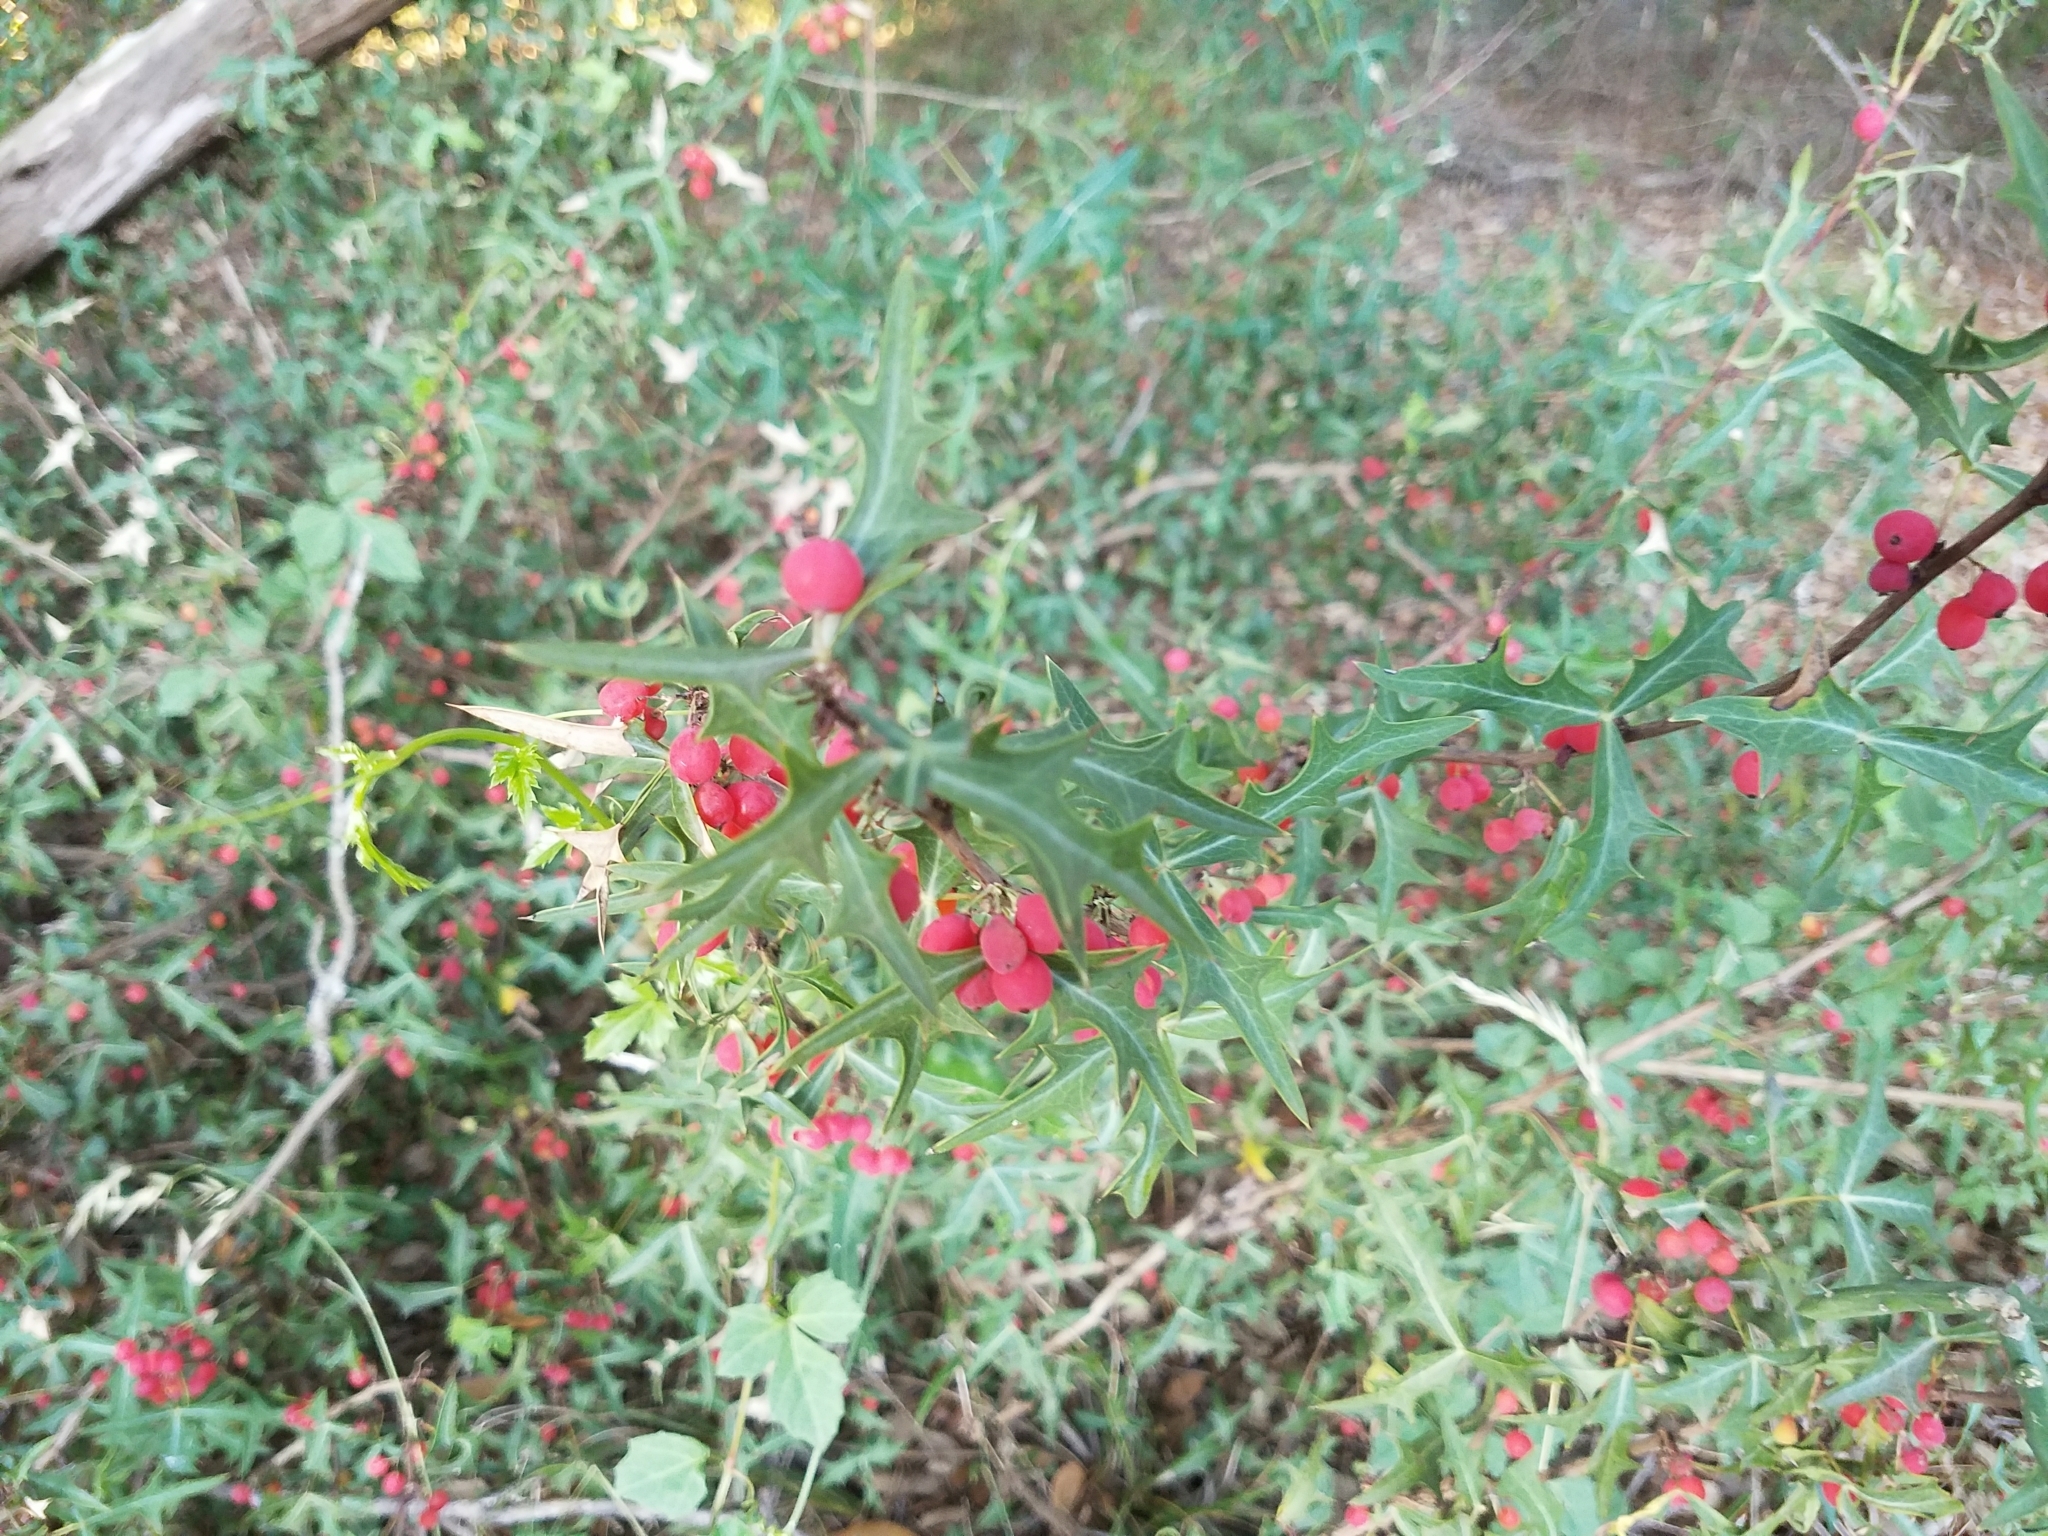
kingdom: Plantae
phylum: Tracheophyta
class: Magnoliopsida
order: Ranunculales
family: Berberidaceae
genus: Alloberberis
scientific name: Alloberberis trifoliolata
